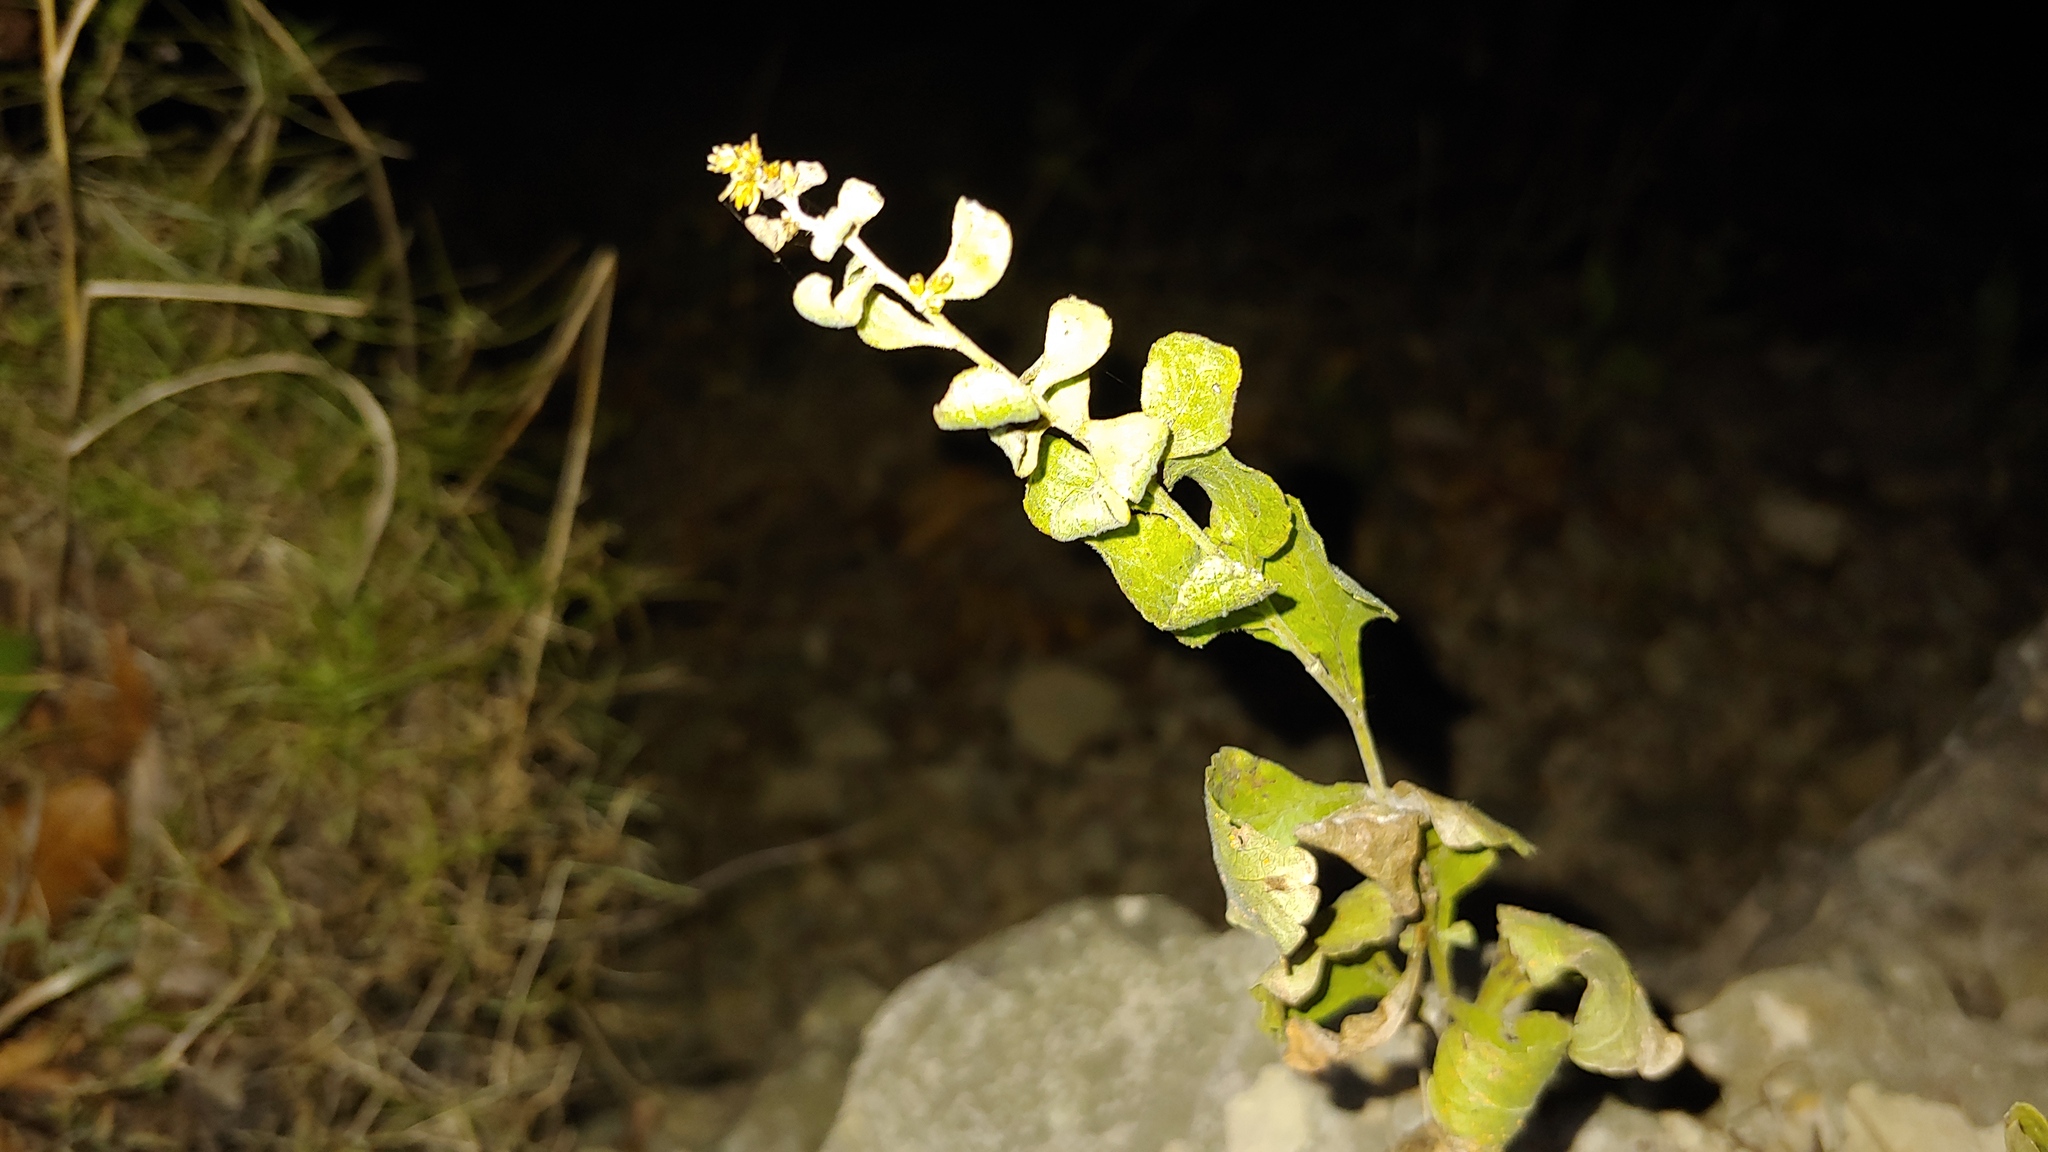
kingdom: Plantae
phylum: Tracheophyta
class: Magnoliopsida
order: Asterales
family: Asteraceae
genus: Solidago
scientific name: Solidago drummondii
